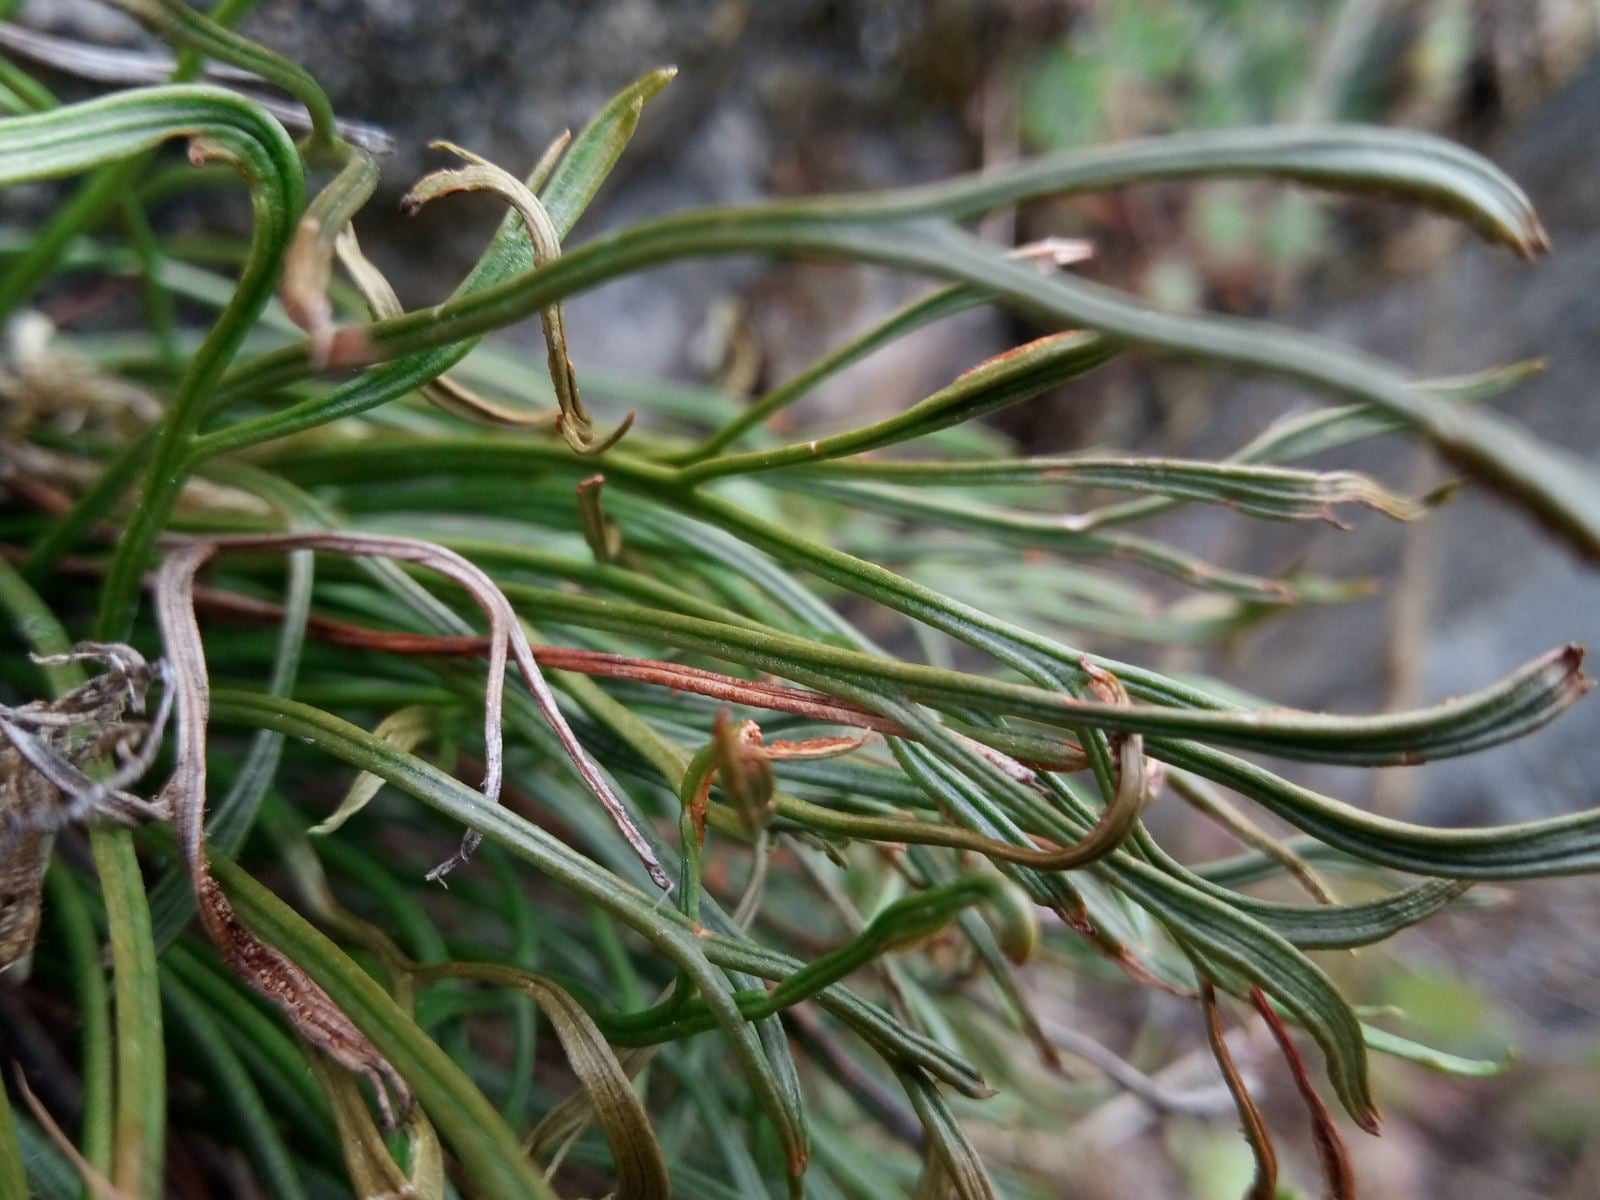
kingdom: Plantae
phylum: Tracheophyta
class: Polypodiopsida
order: Polypodiales
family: Aspleniaceae
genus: Asplenium
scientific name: Asplenium septentrionale
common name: Forked spleenwort
